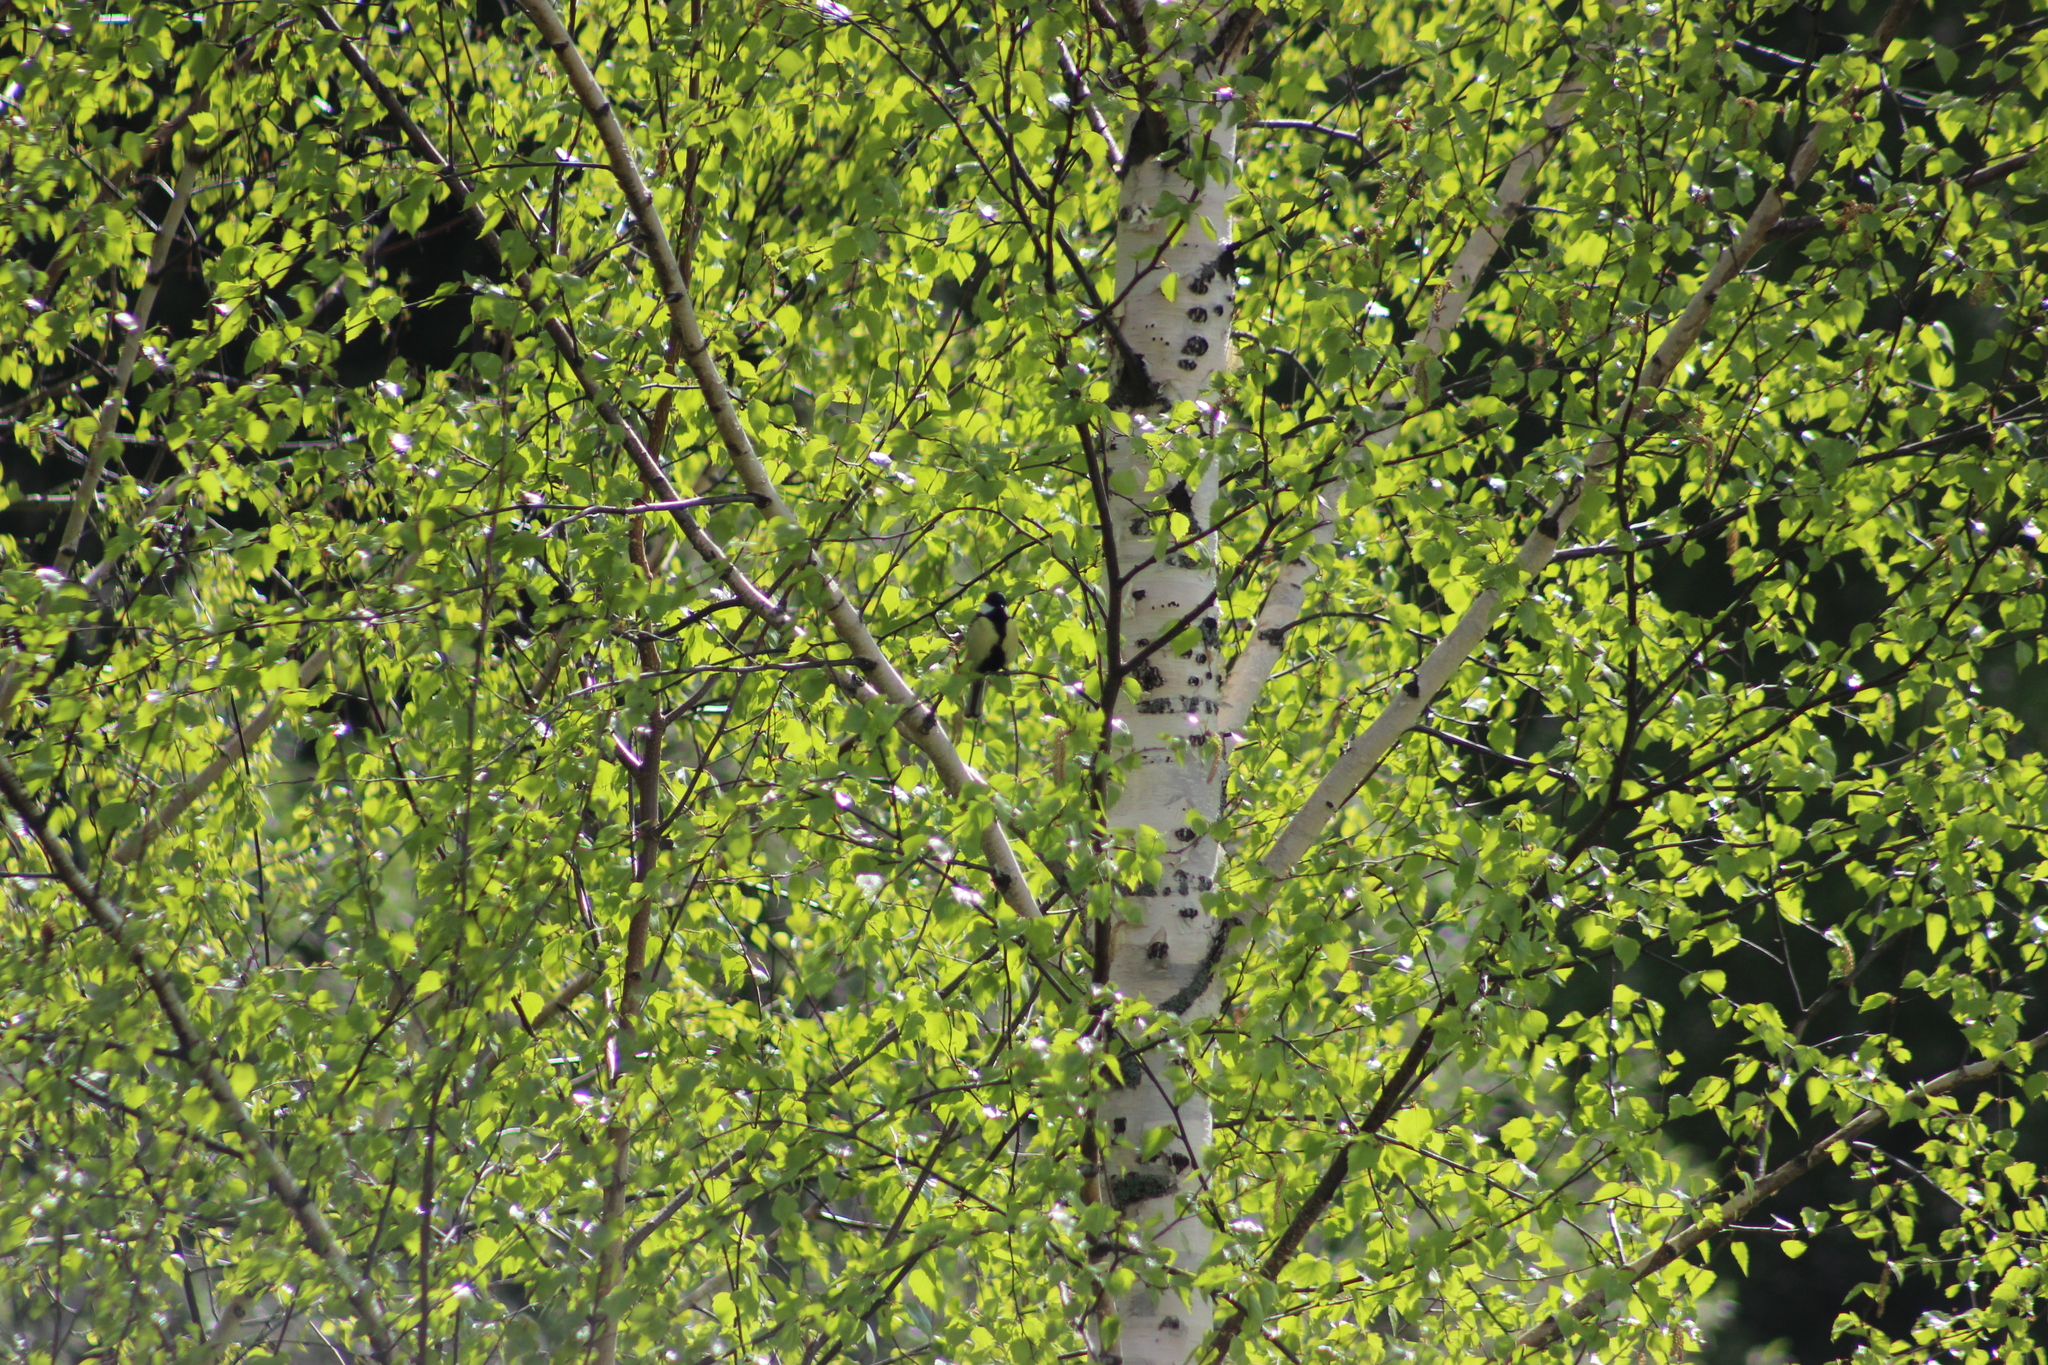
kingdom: Animalia
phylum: Chordata
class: Aves
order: Passeriformes
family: Paridae
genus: Parus
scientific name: Parus major
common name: Great tit
